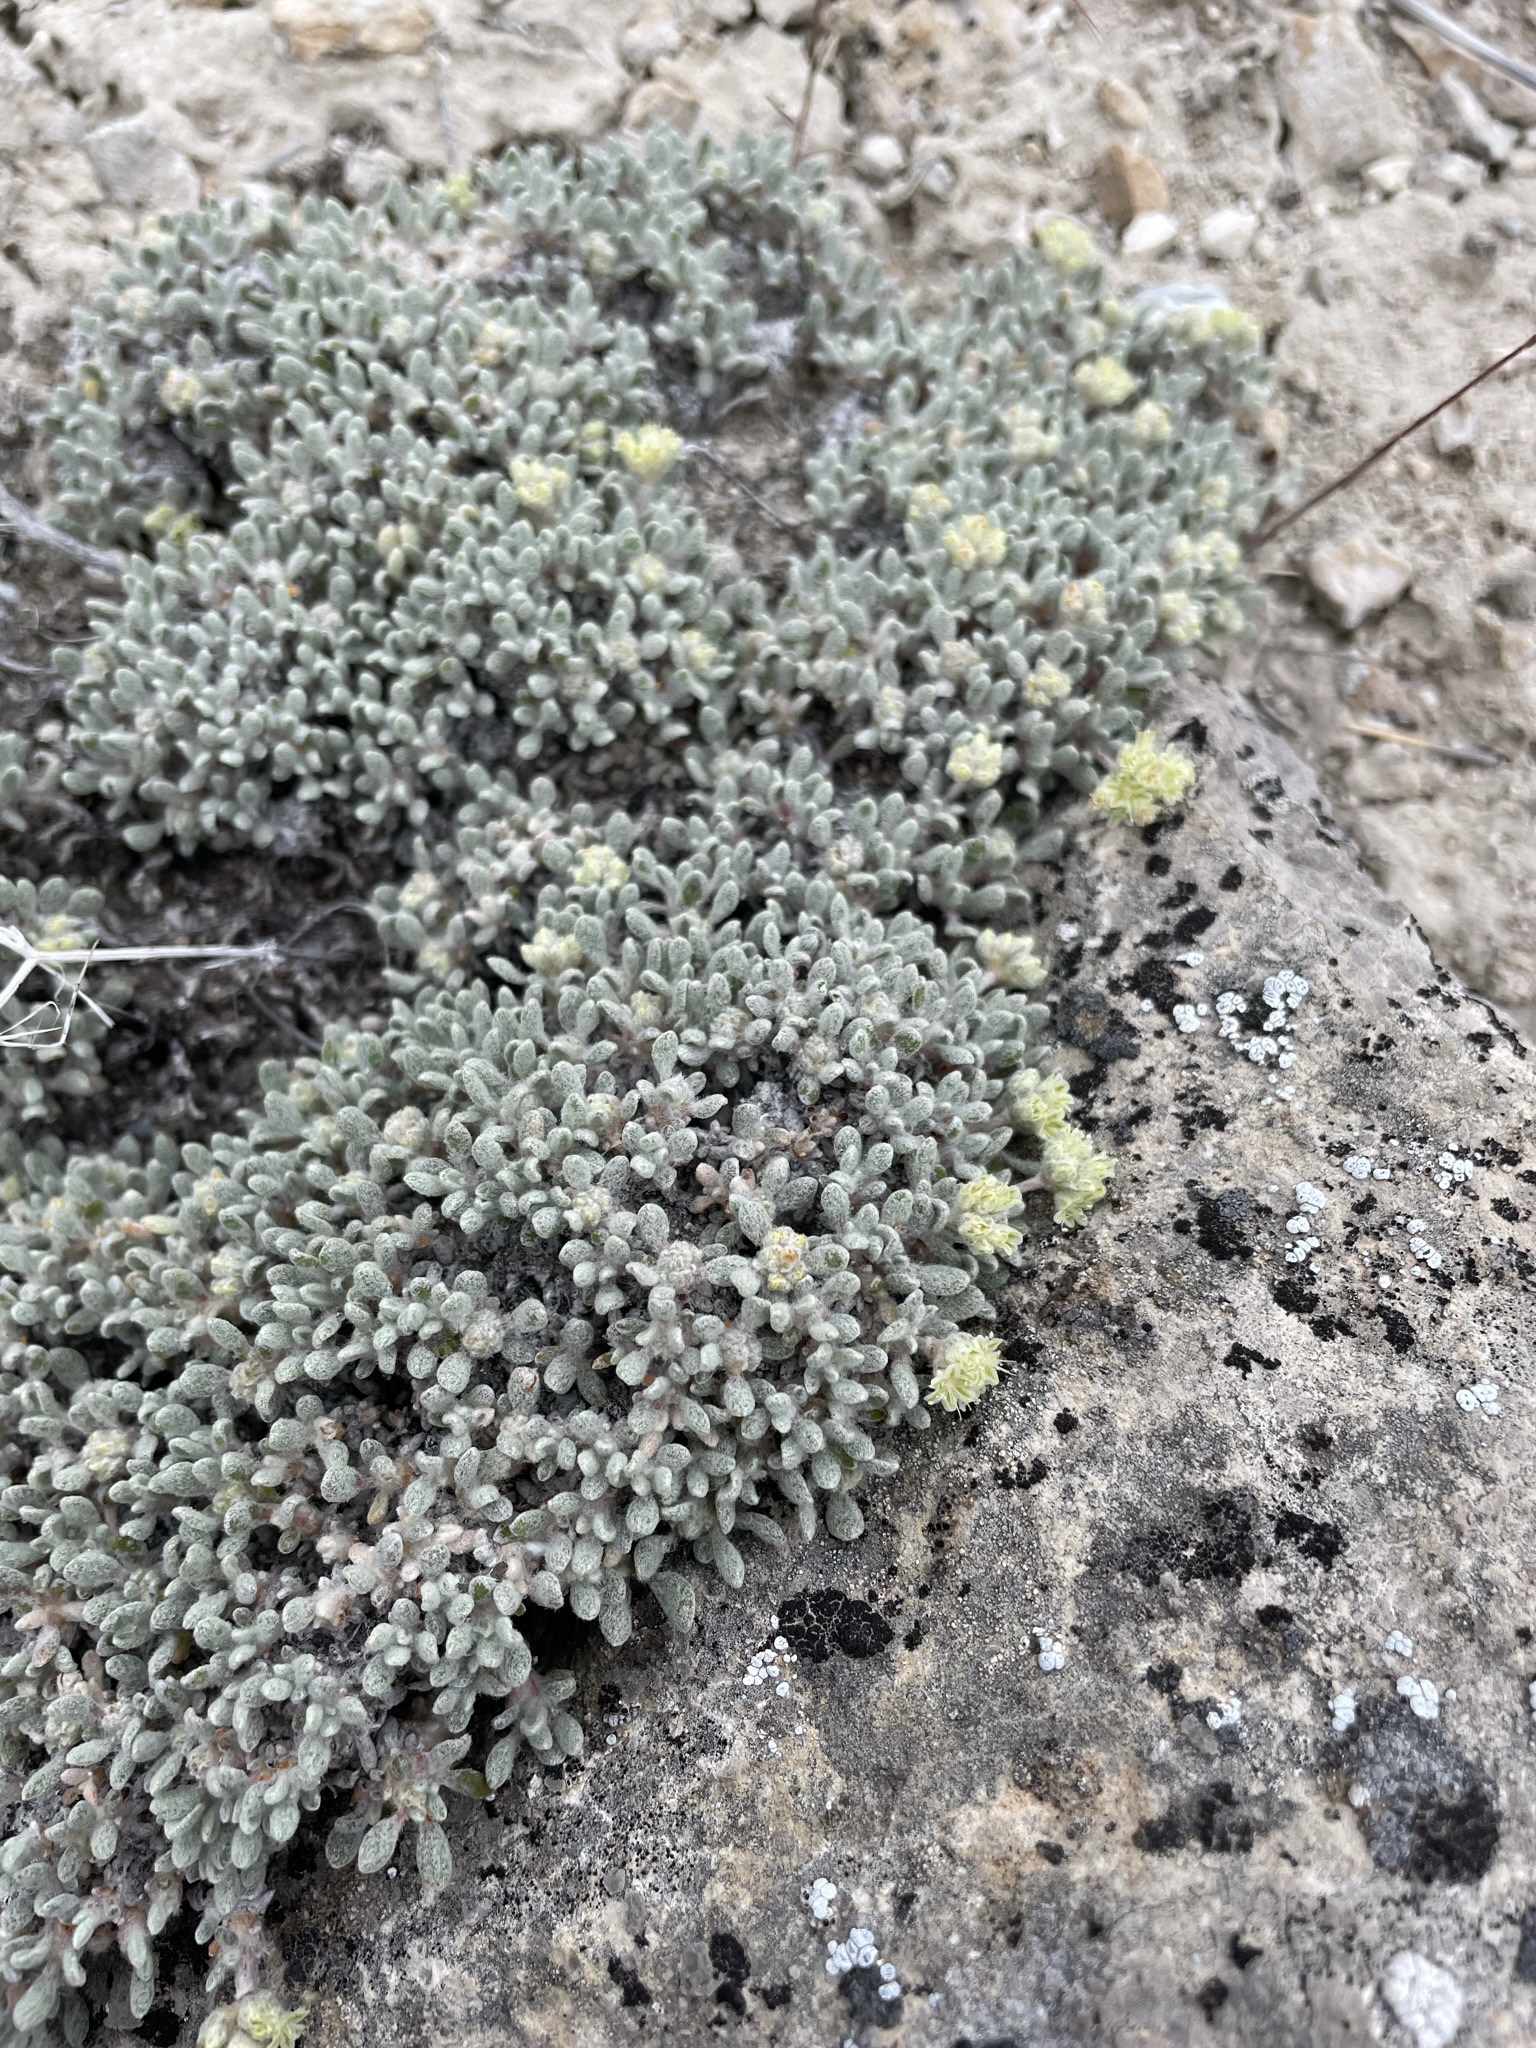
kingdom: Plantae
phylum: Tracheophyta
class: Magnoliopsida
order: Caryophyllales
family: Polygonaceae
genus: Eriogonum
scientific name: Eriogonum shockleyi
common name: Shockley's wild buckwheat
